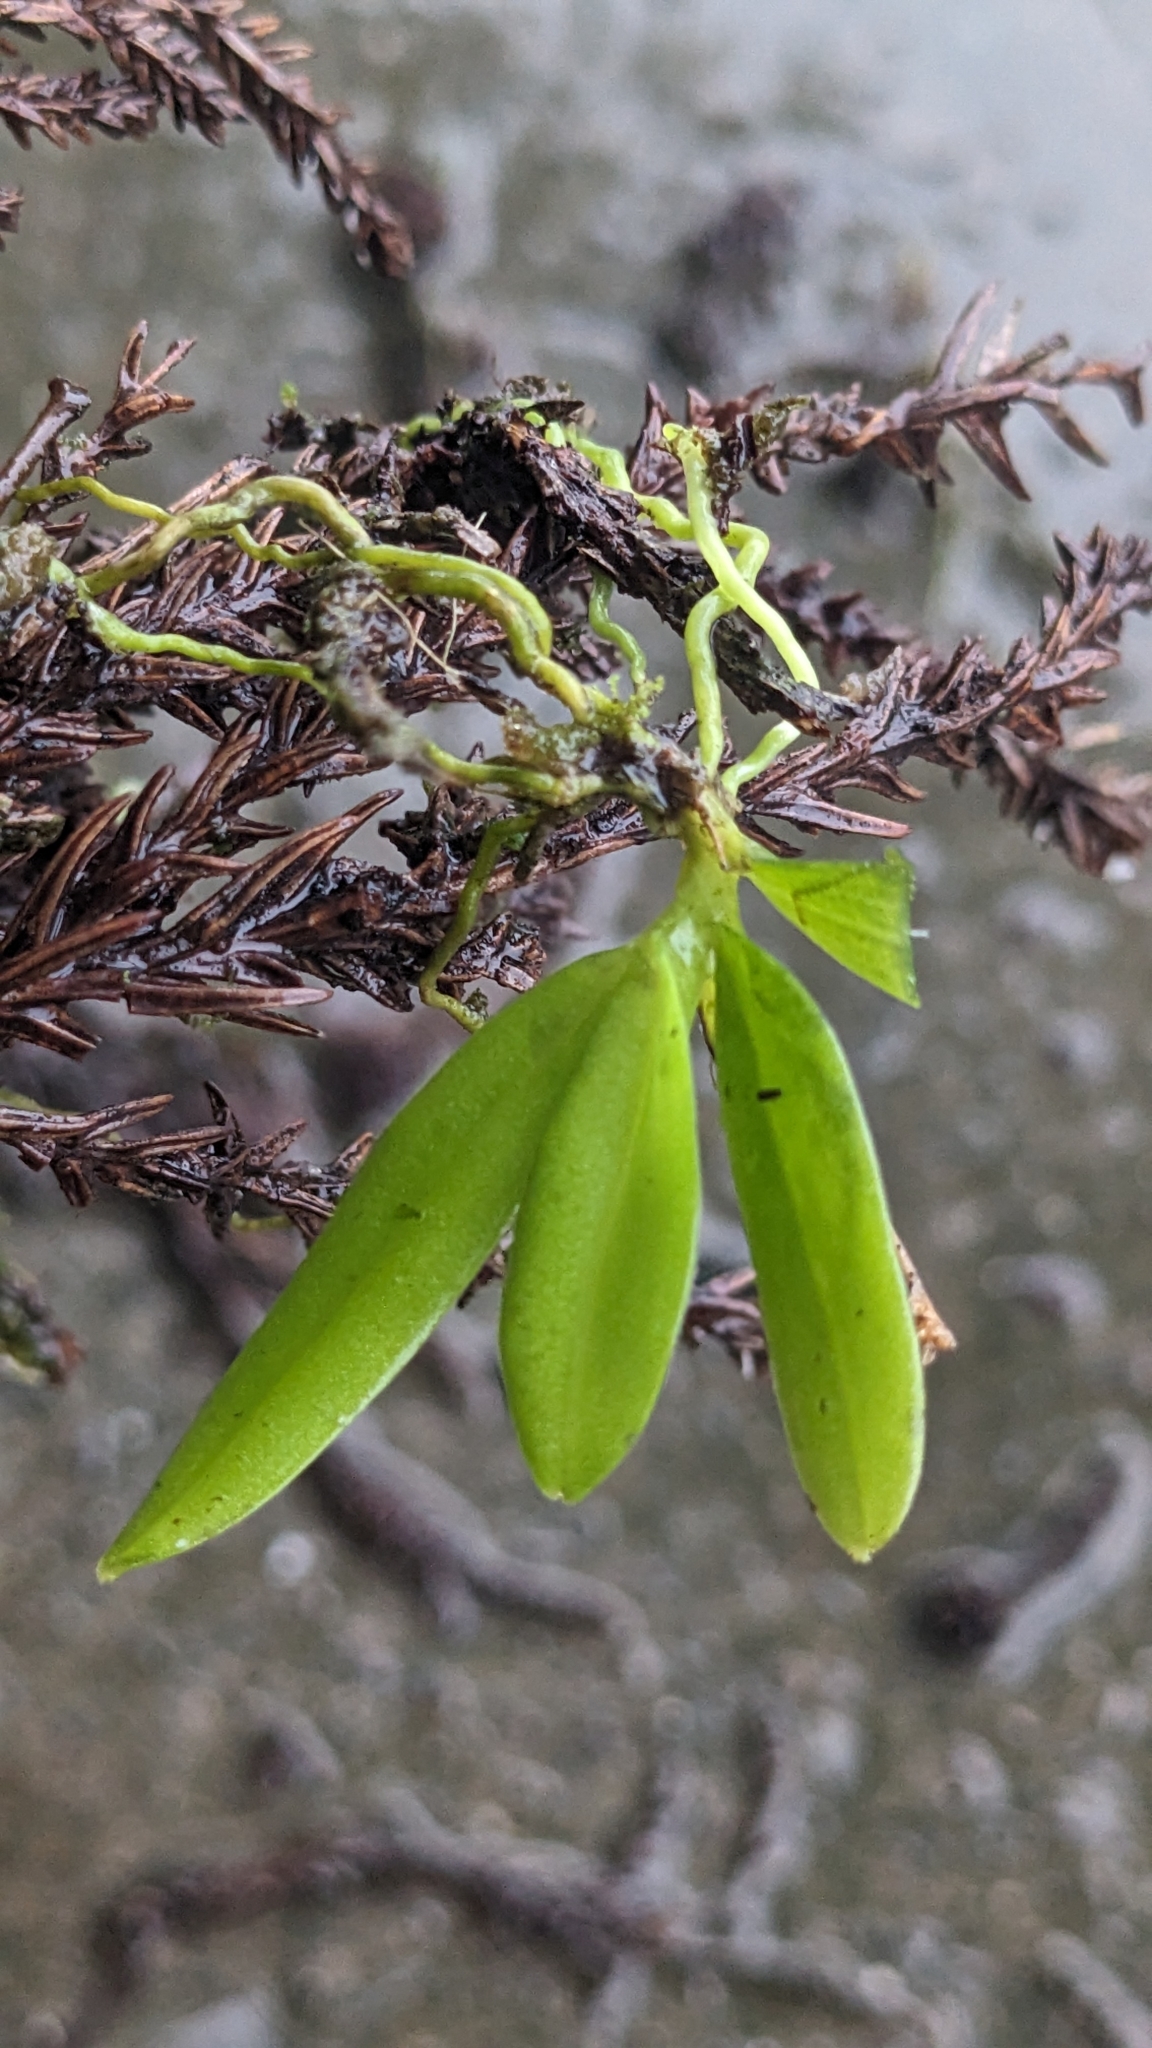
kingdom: Plantae
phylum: Tracheophyta
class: Liliopsida
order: Asparagales
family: Orchidaceae
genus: Thrixspermum
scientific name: Thrixspermum fantasticum
